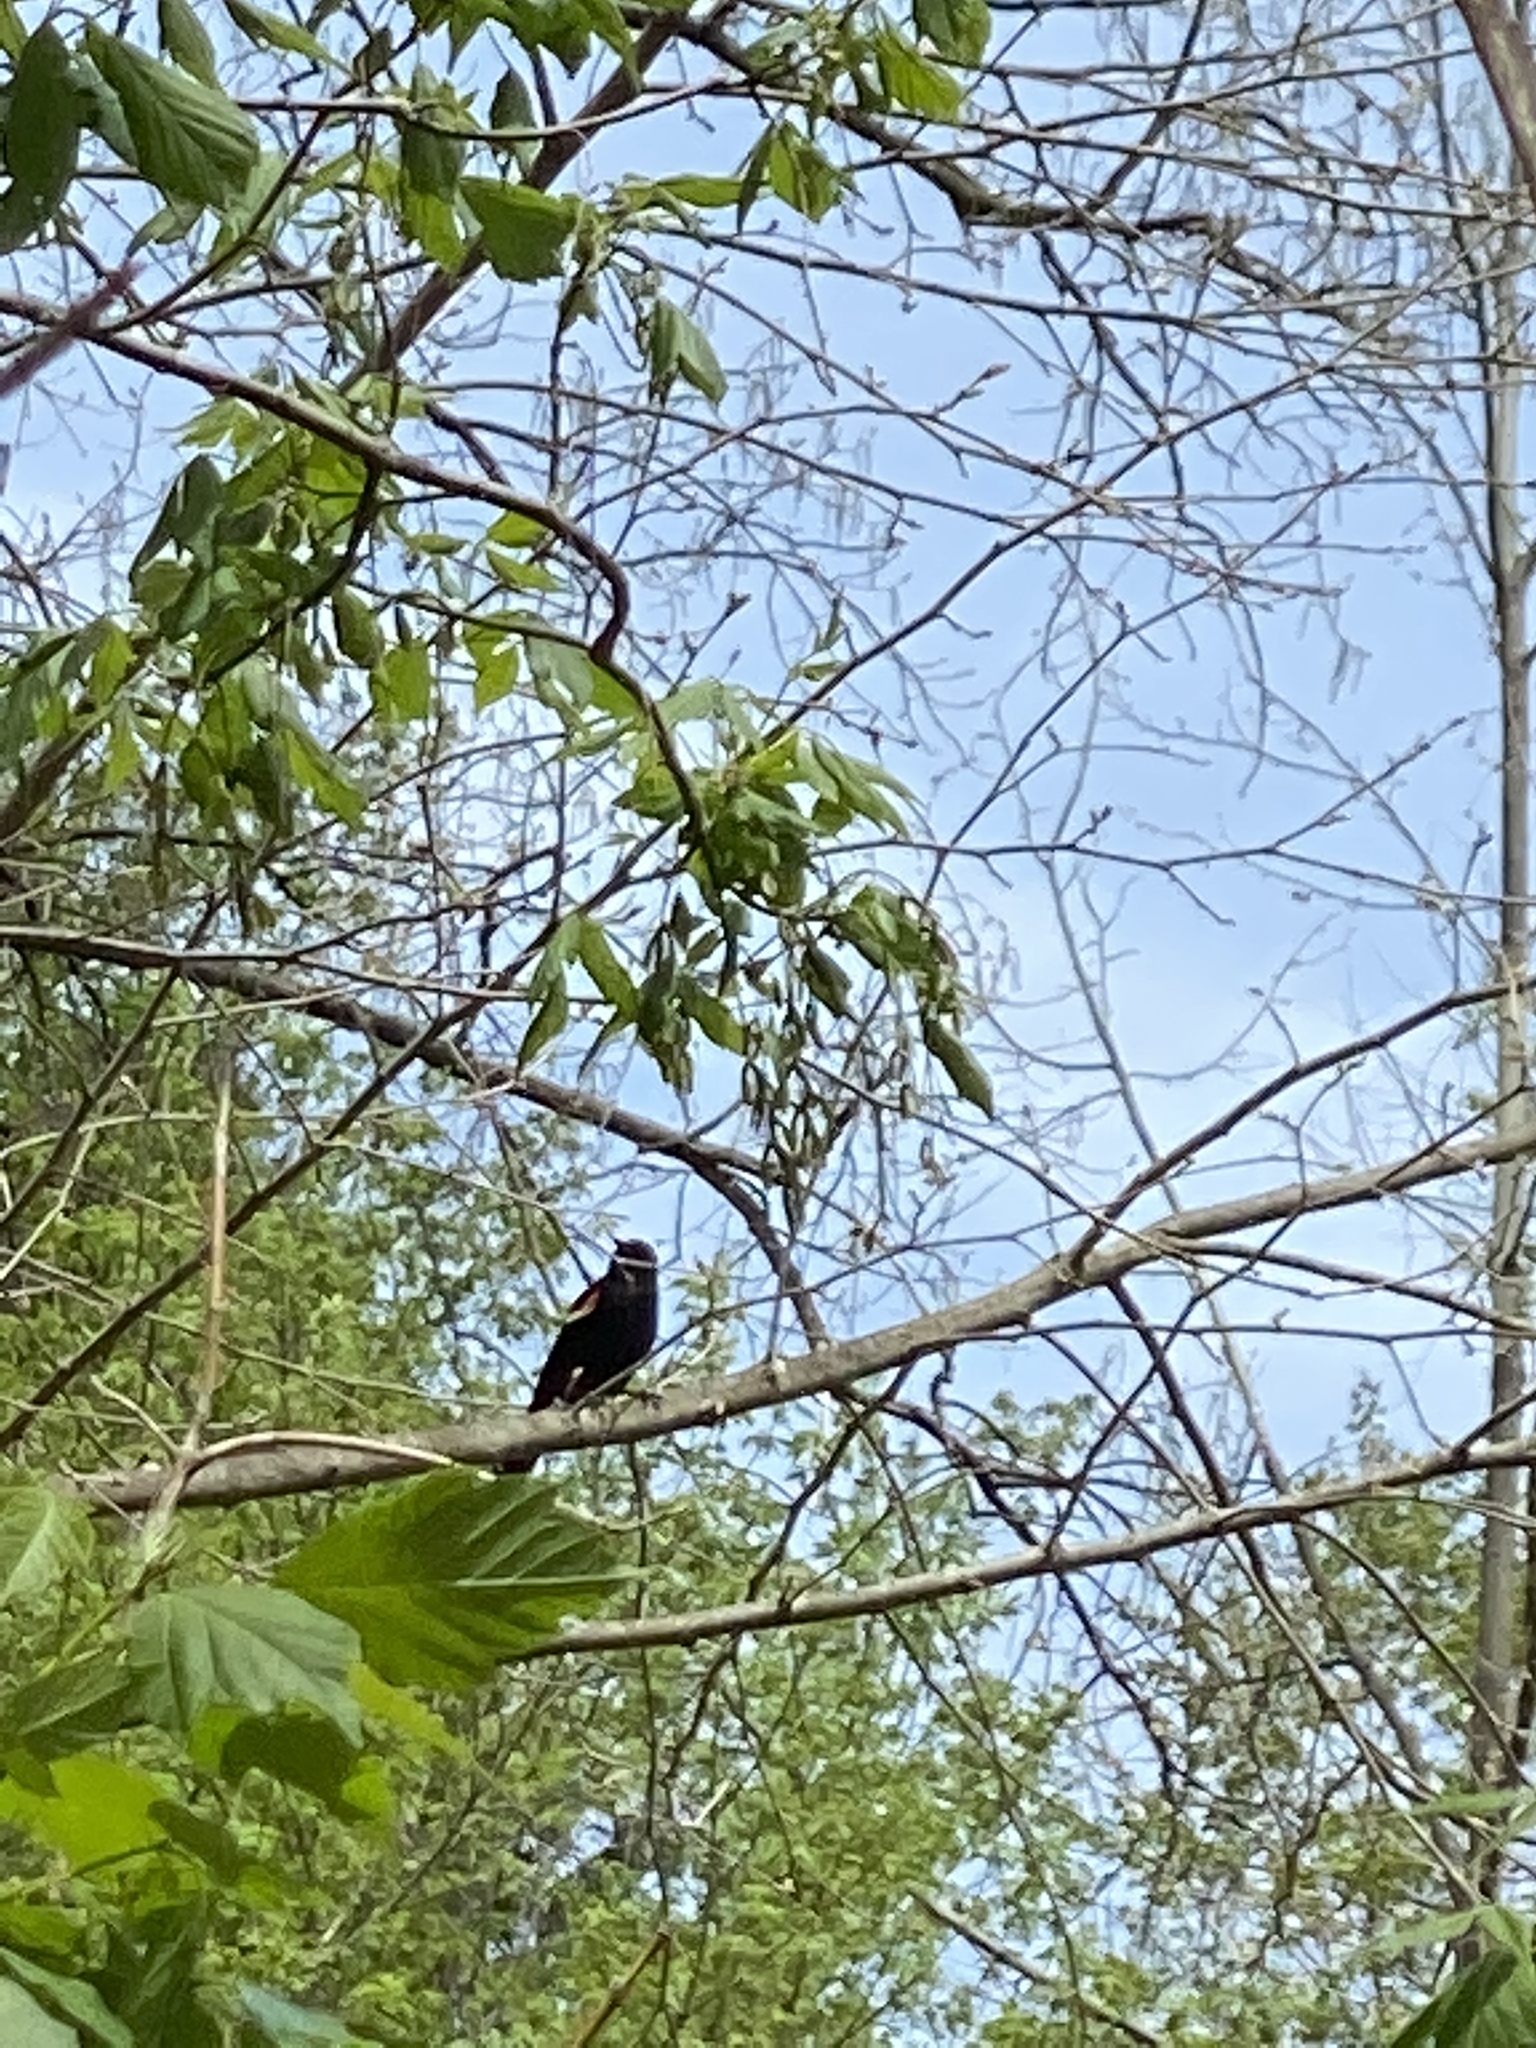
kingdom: Animalia
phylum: Chordata
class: Aves
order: Passeriformes
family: Icteridae
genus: Agelaius
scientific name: Agelaius phoeniceus
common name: Red-winged blackbird
